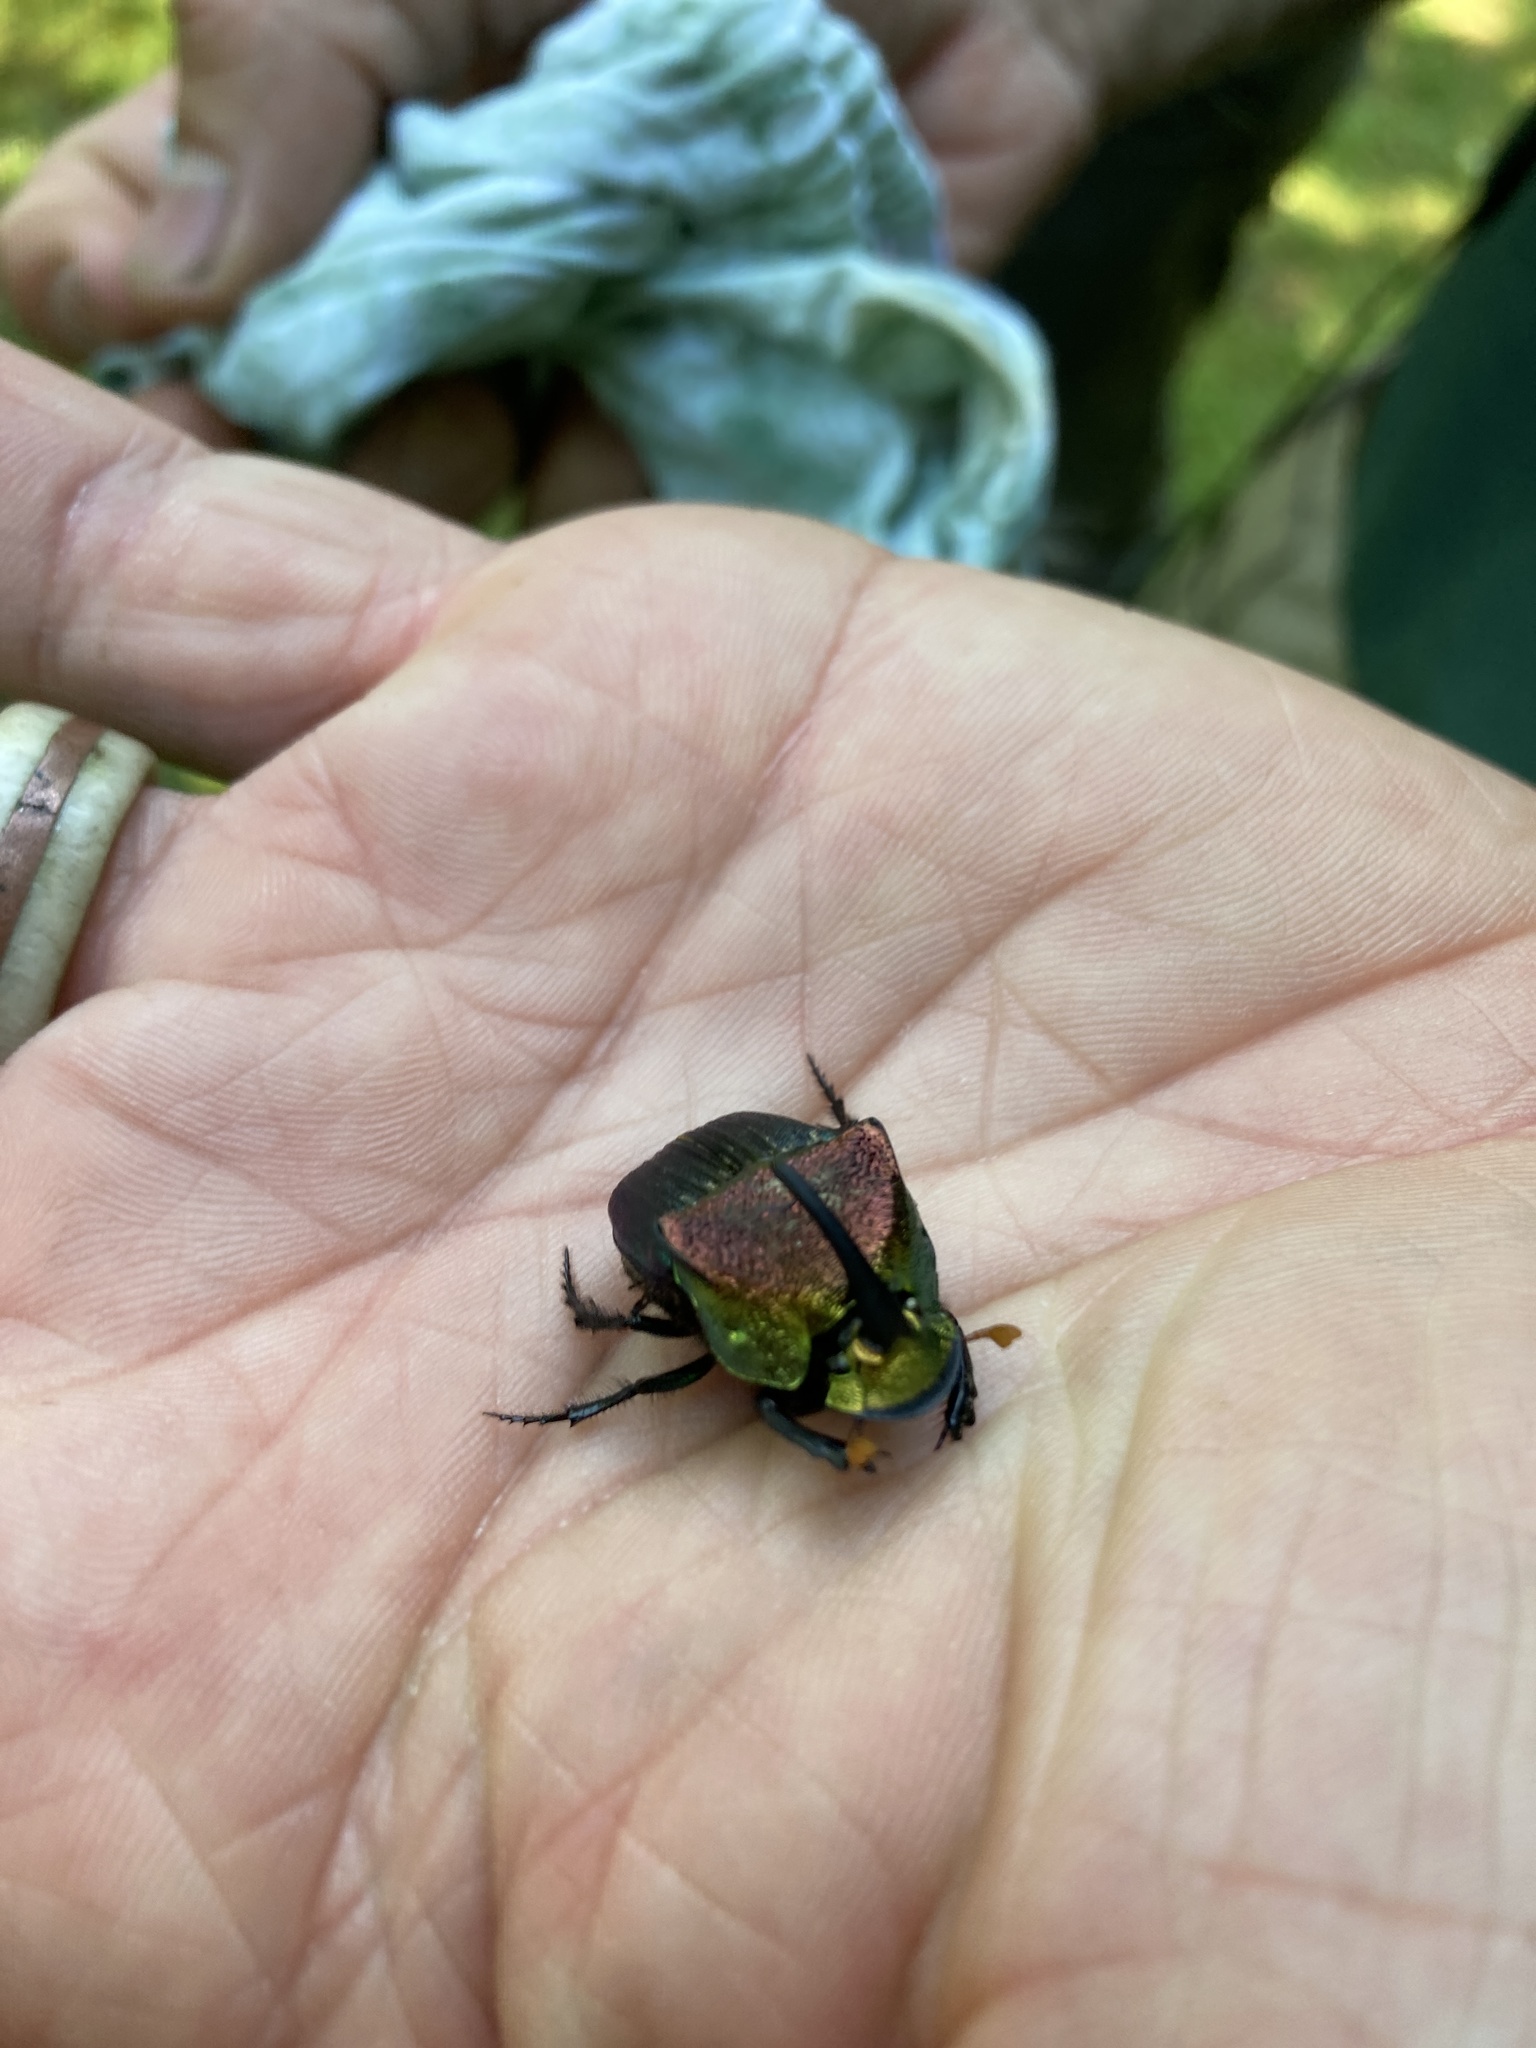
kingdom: Animalia
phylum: Arthropoda
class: Insecta
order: Coleoptera
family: Scarabaeidae
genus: Phanaeus
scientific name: Phanaeus vindex
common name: Rainbow scarab
